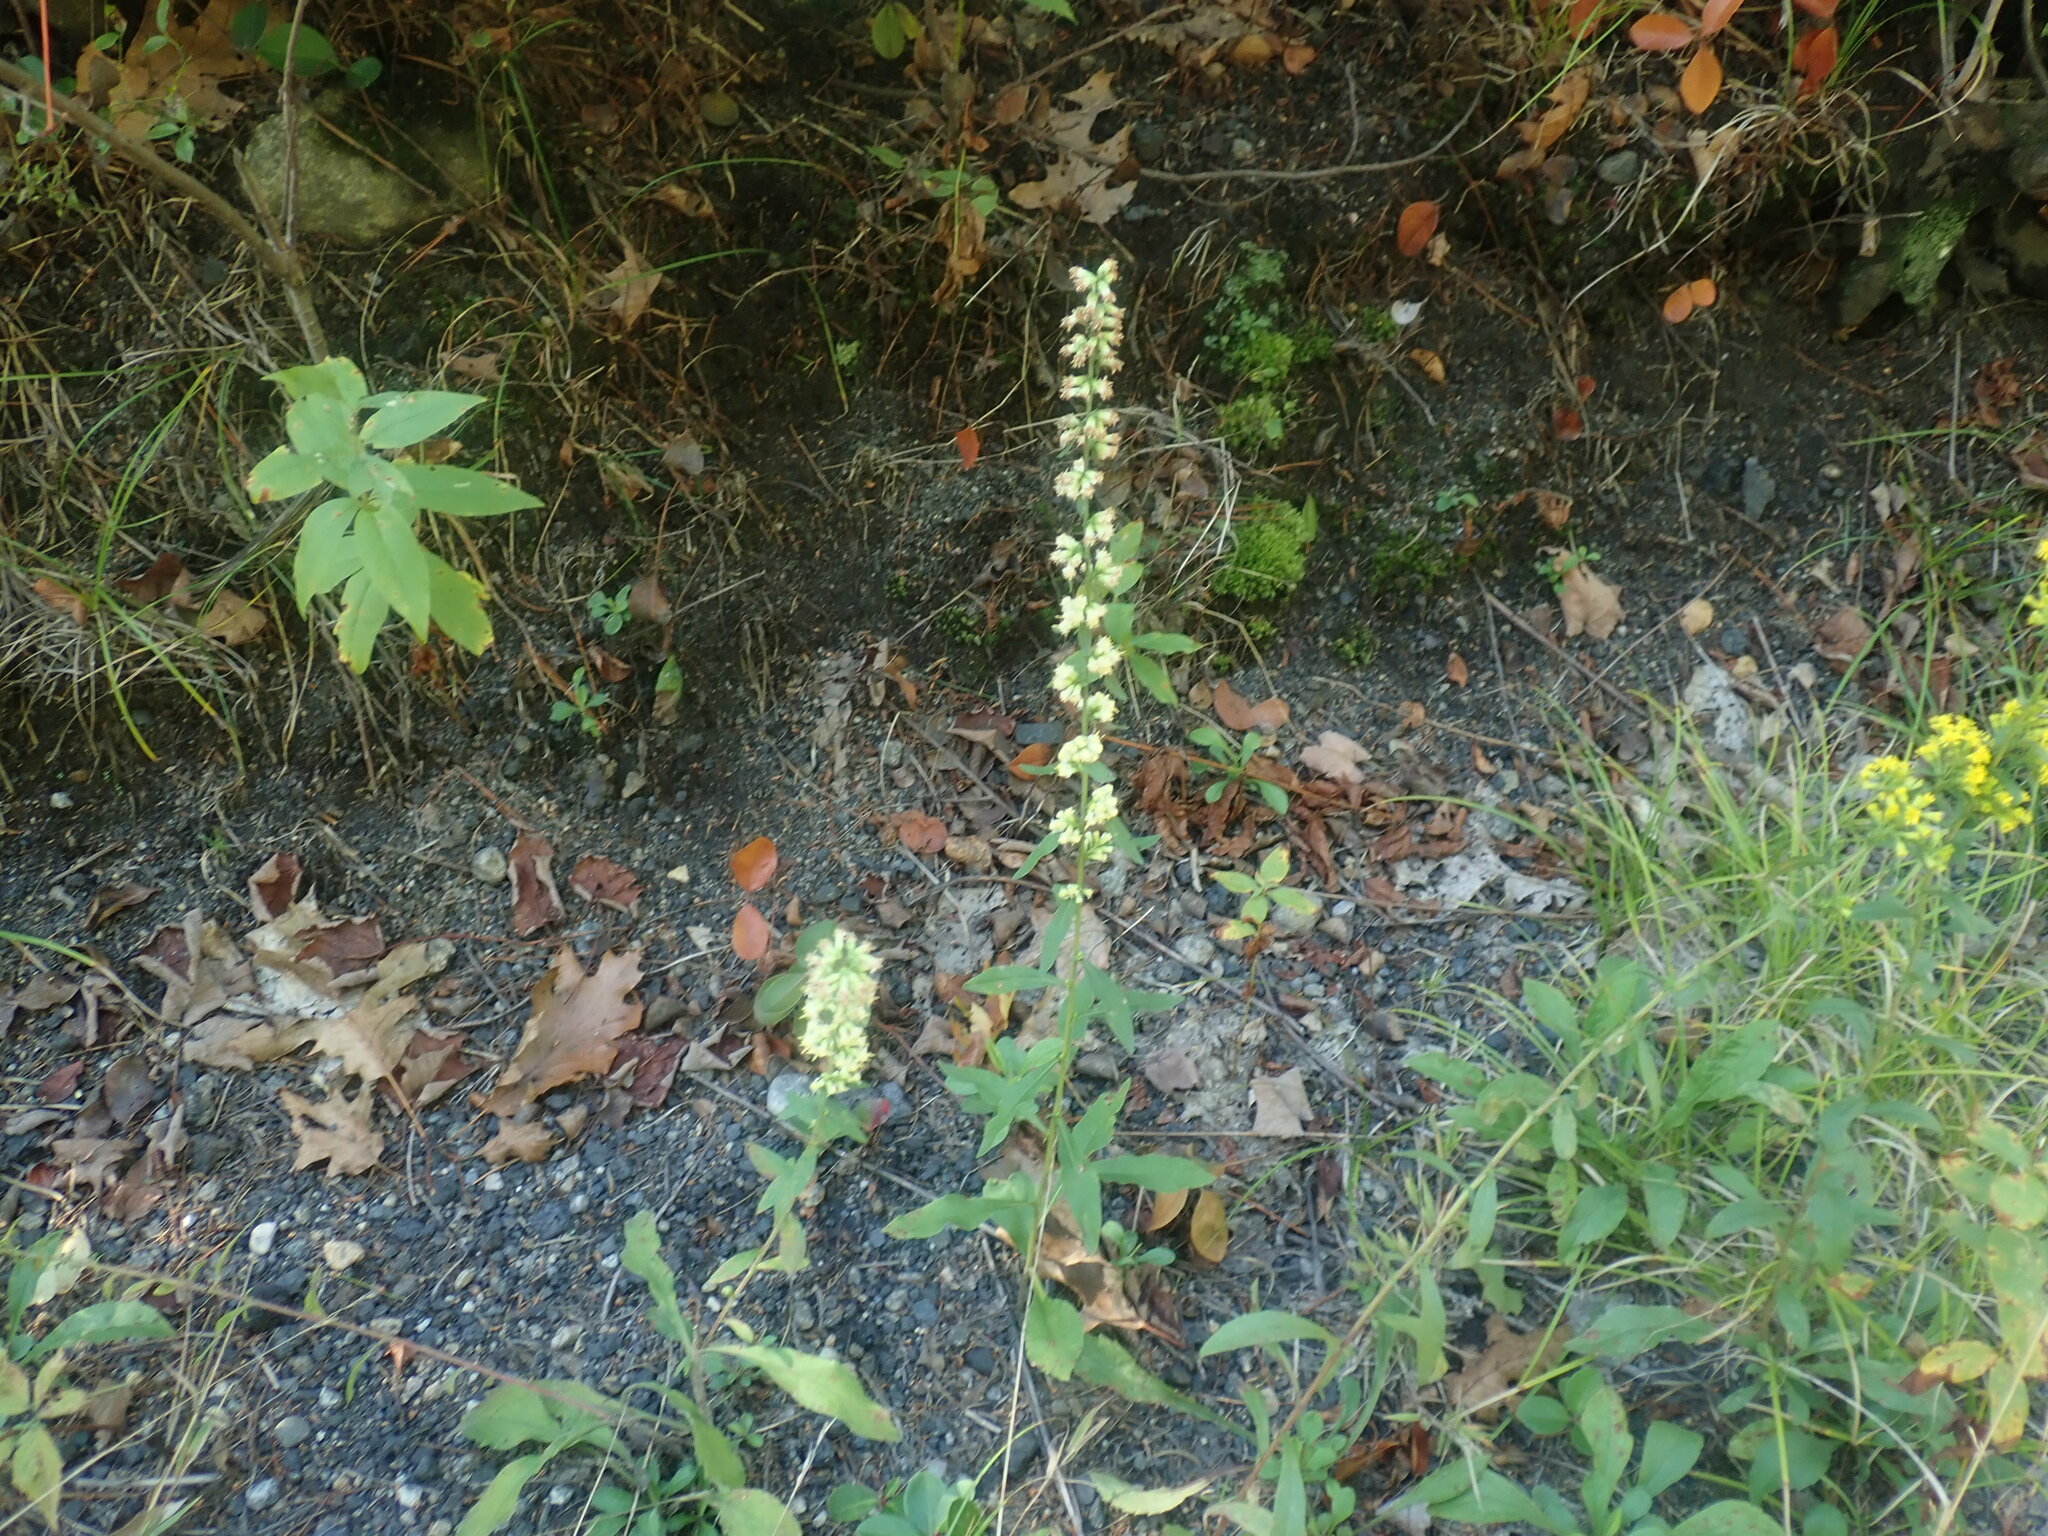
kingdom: Plantae
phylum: Tracheophyta
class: Magnoliopsida
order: Asterales
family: Asteraceae
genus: Solidago
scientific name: Solidago bicolor
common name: Silverrod
